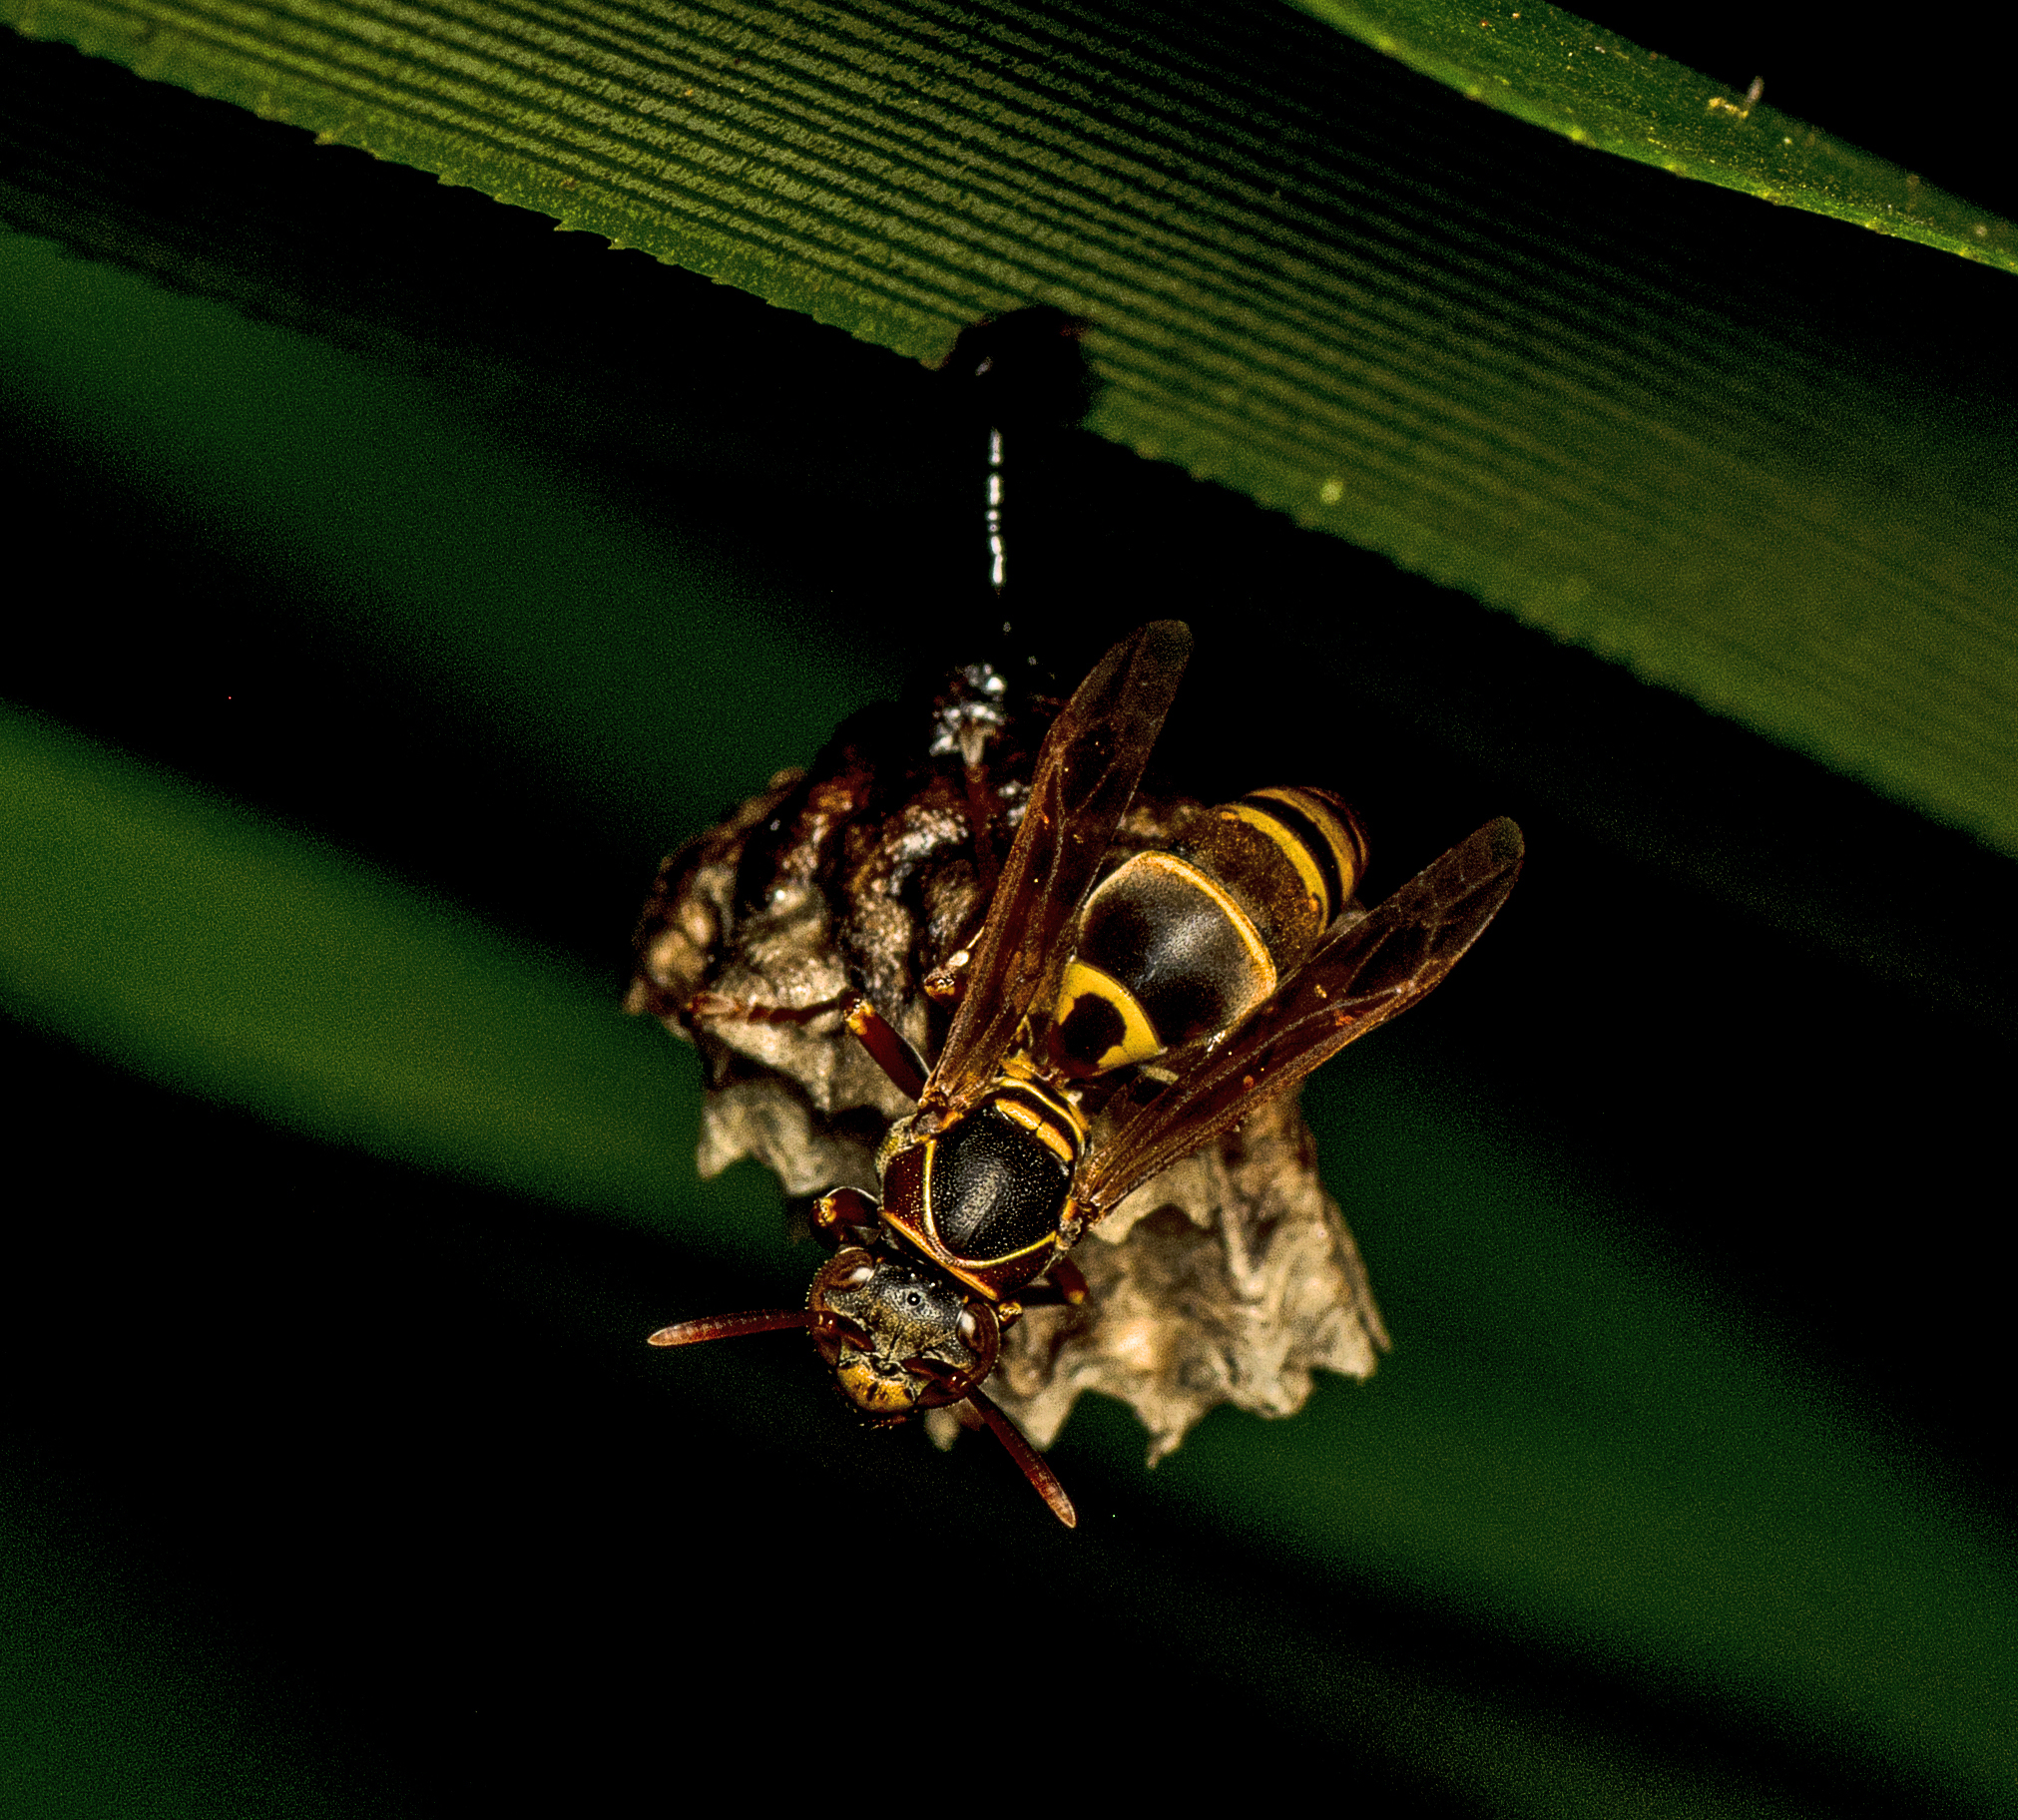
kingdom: Animalia
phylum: Arthropoda
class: Insecta
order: Hymenoptera
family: Eumenidae
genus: Polistes
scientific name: Polistes humilis
